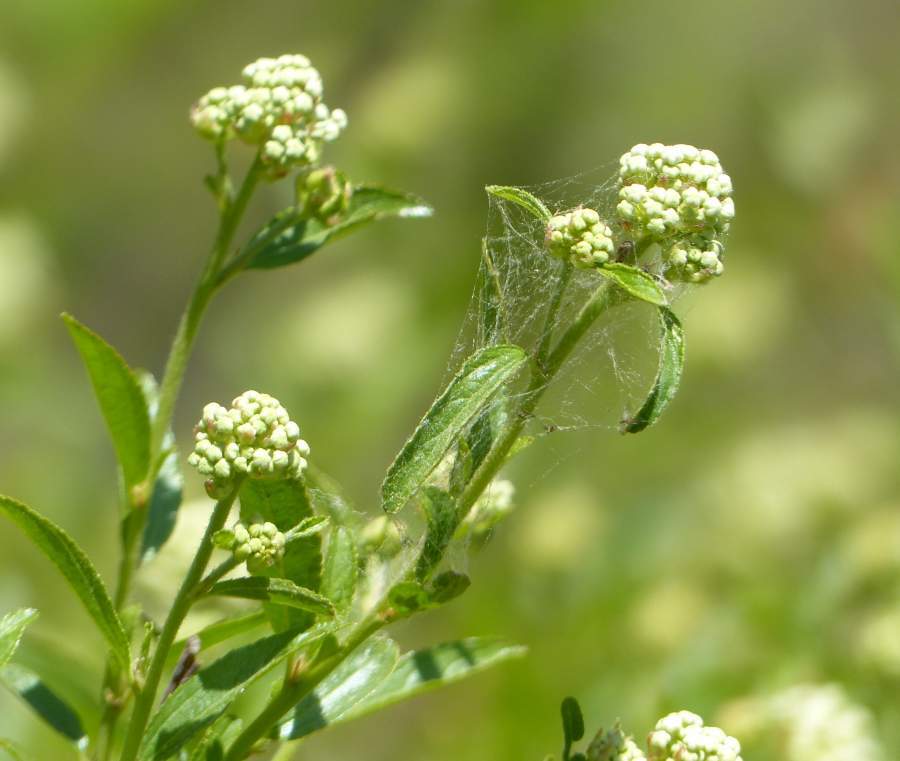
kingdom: Plantae
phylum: Tracheophyta
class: Magnoliopsida
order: Rosales
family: Rhamnaceae
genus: Ceanothus
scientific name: Ceanothus herbaceus
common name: Inland ceanothus
